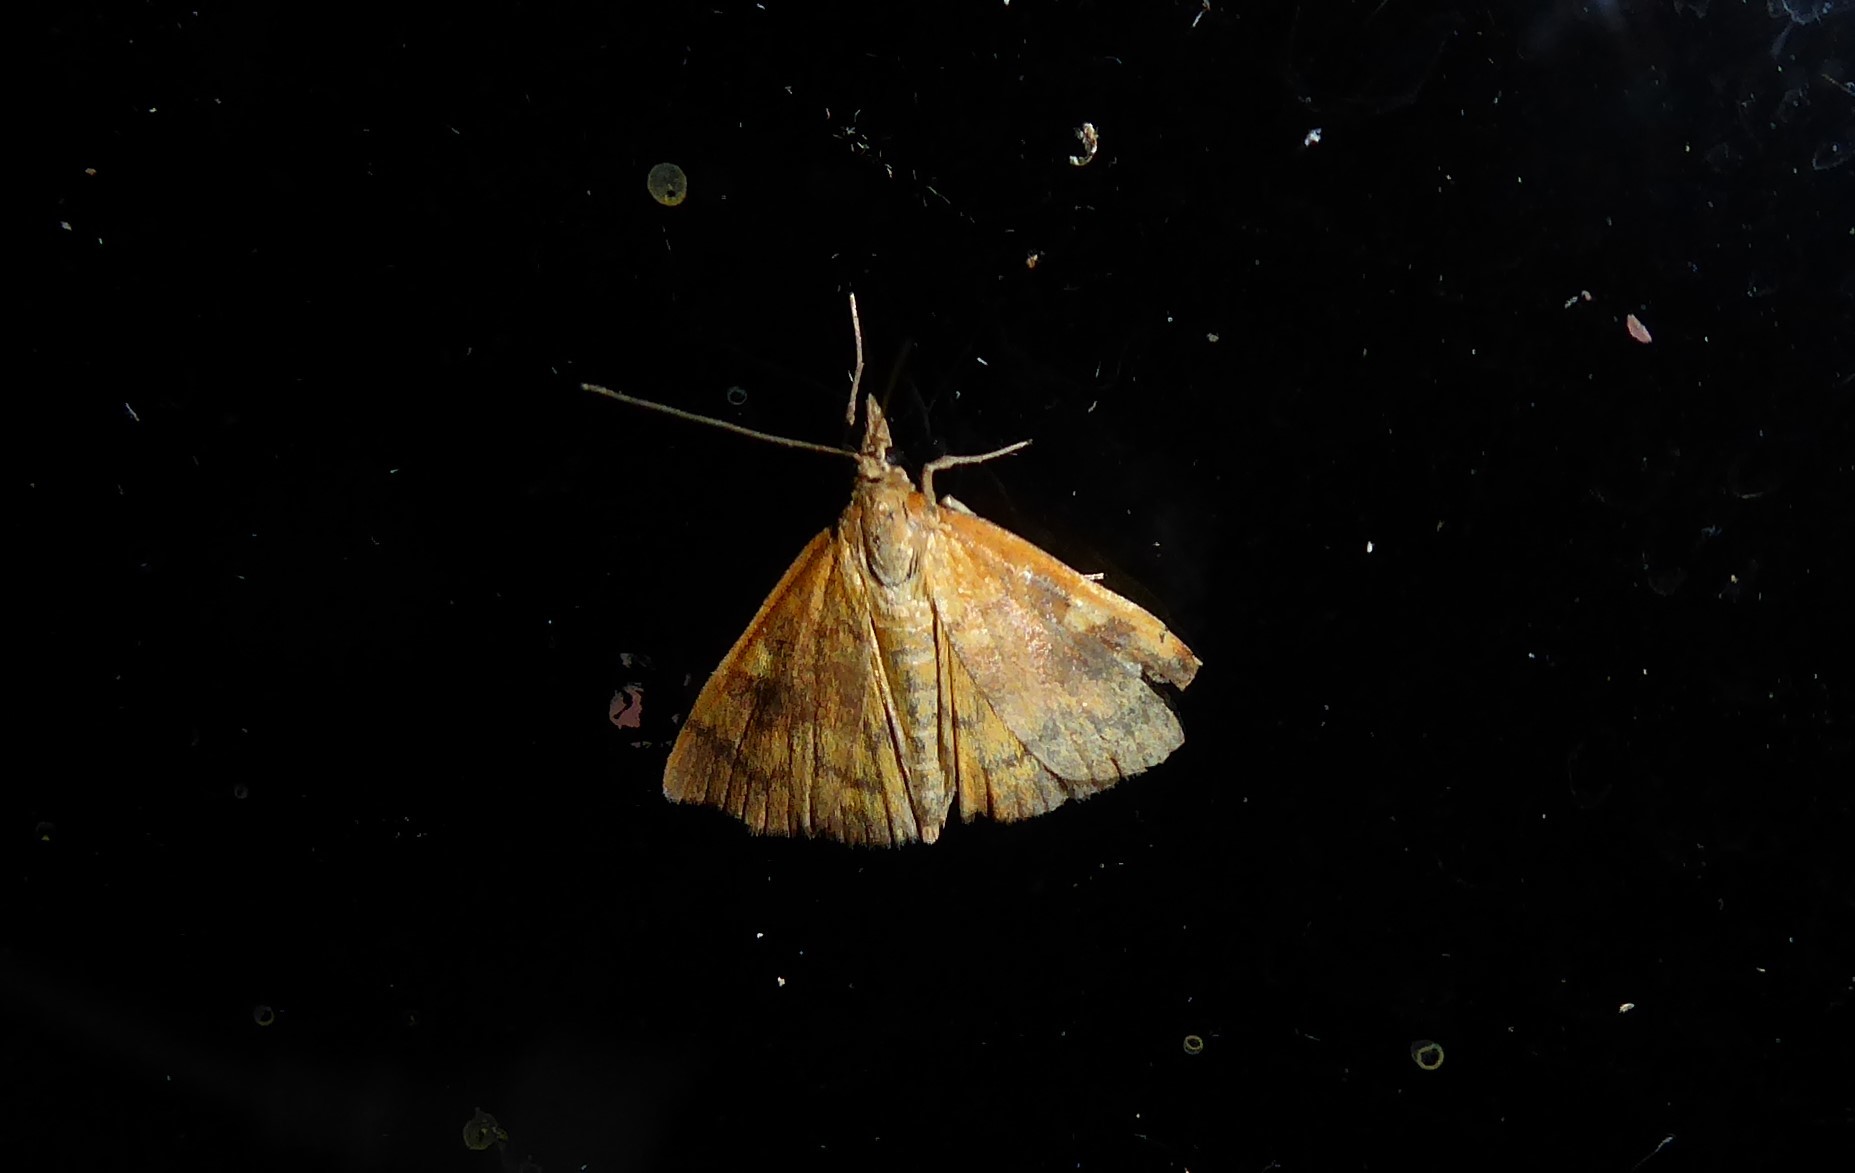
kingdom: Animalia
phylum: Arthropoda
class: Insecta
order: Lepidoptera
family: Crambidae
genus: Udea
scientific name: Udea Mnesictena flavidalis
